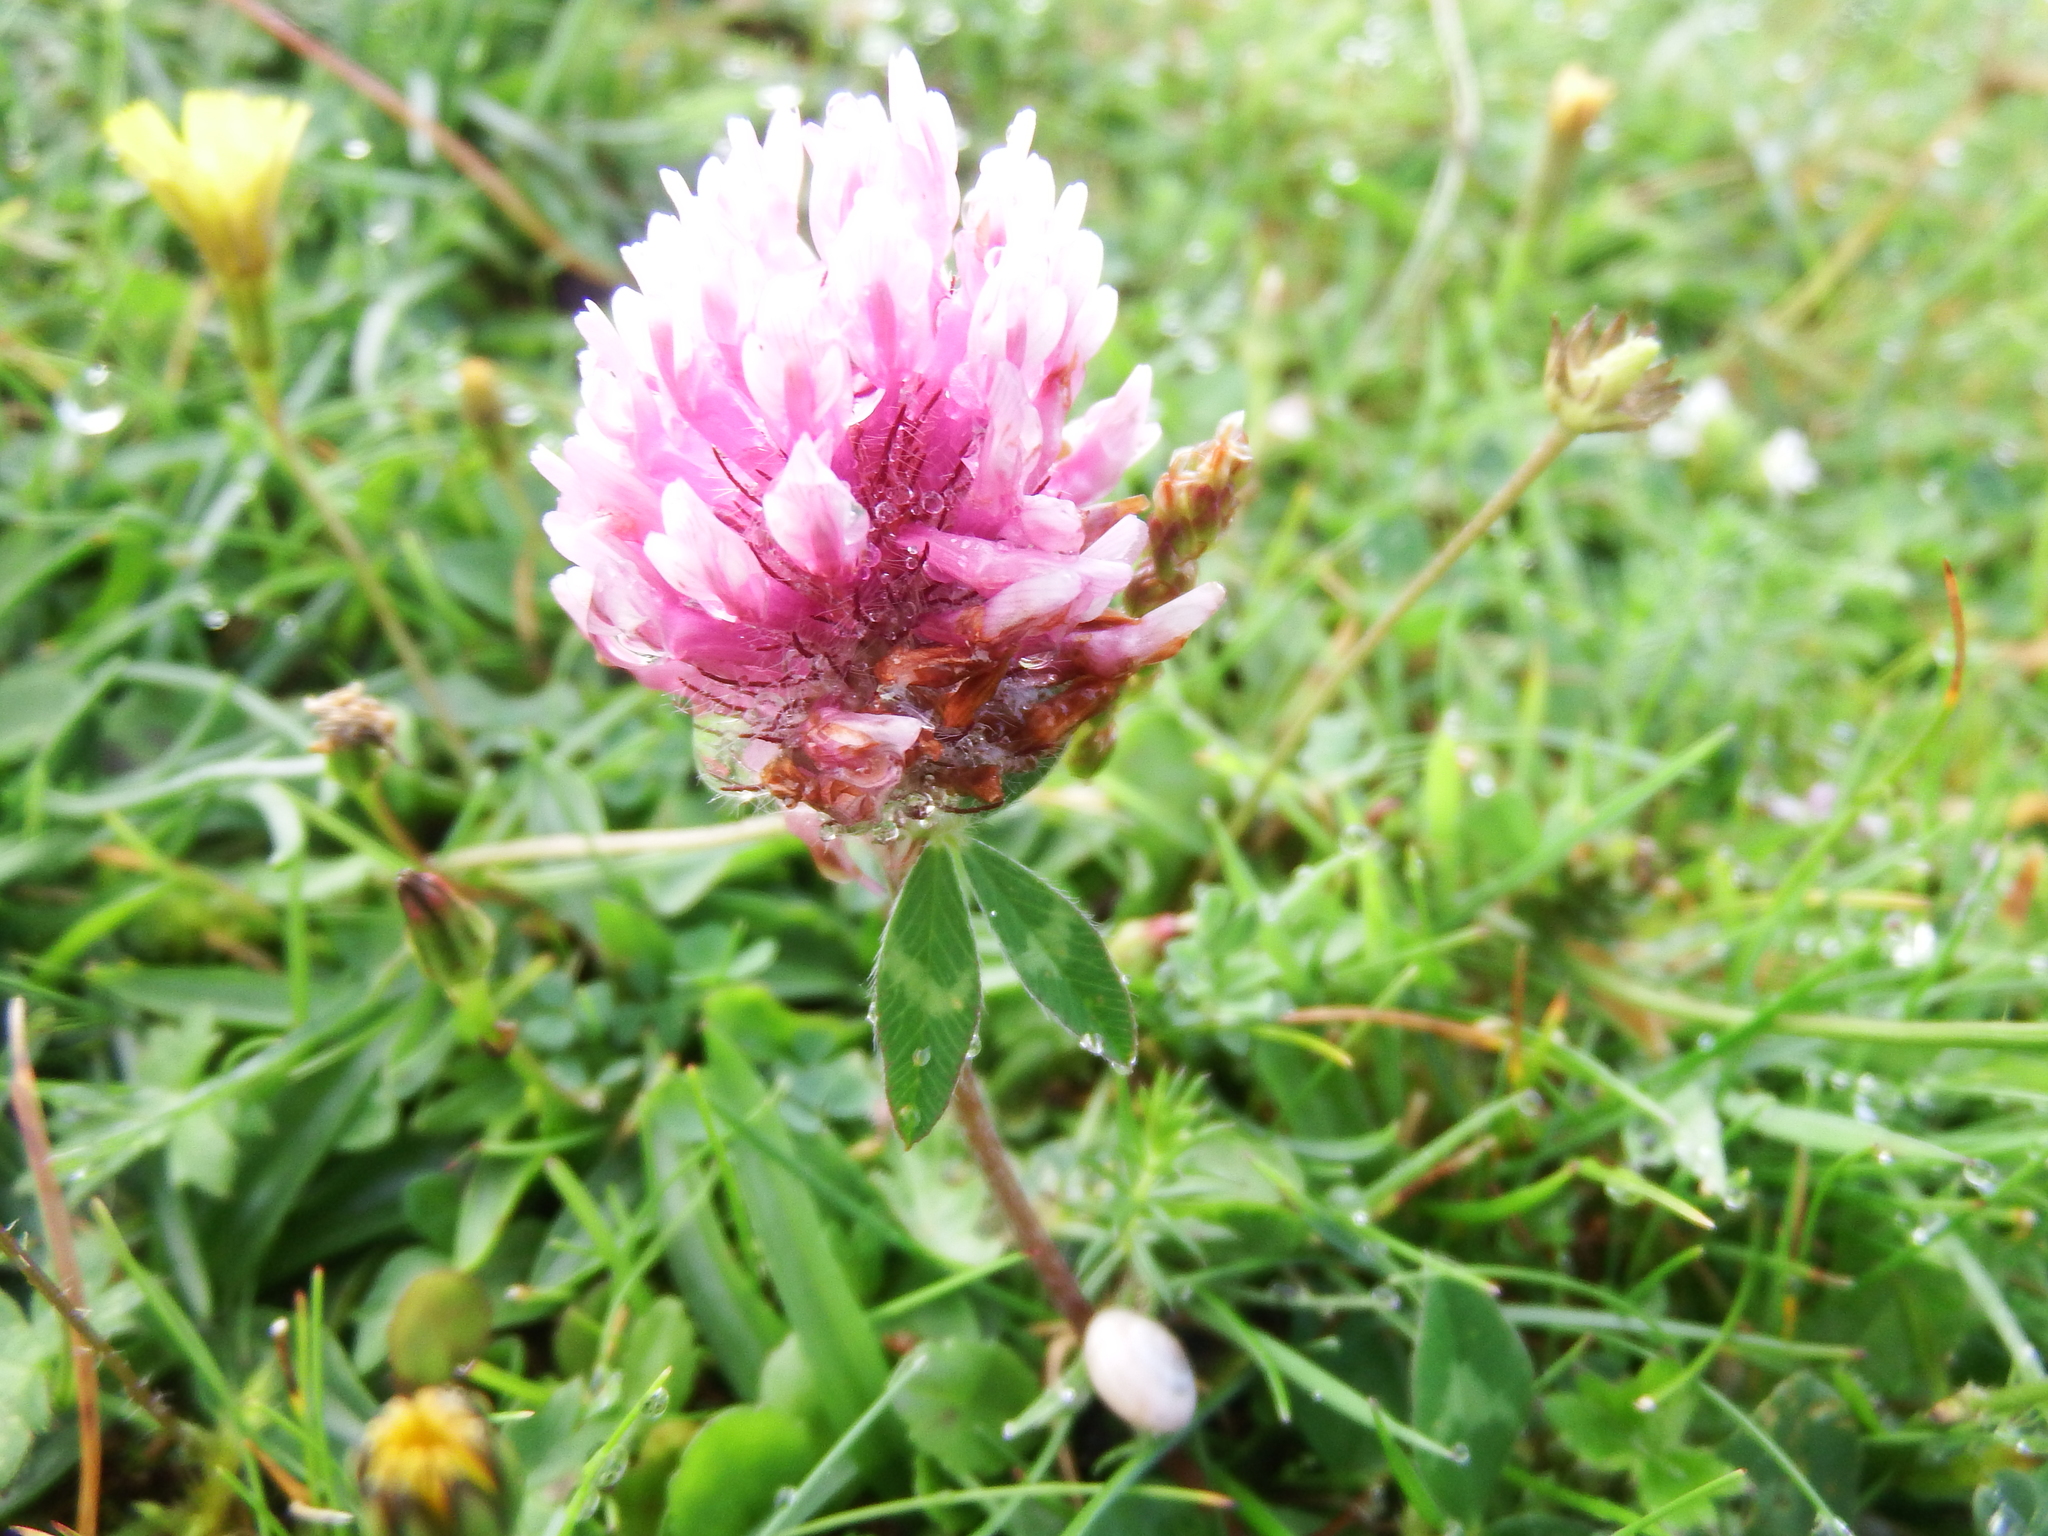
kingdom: Plantae
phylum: Tracheophyta
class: Magnoliopsida
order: Fabales
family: Fabaceae
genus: Trifolium
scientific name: Trifolium pratense
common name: Red clover
